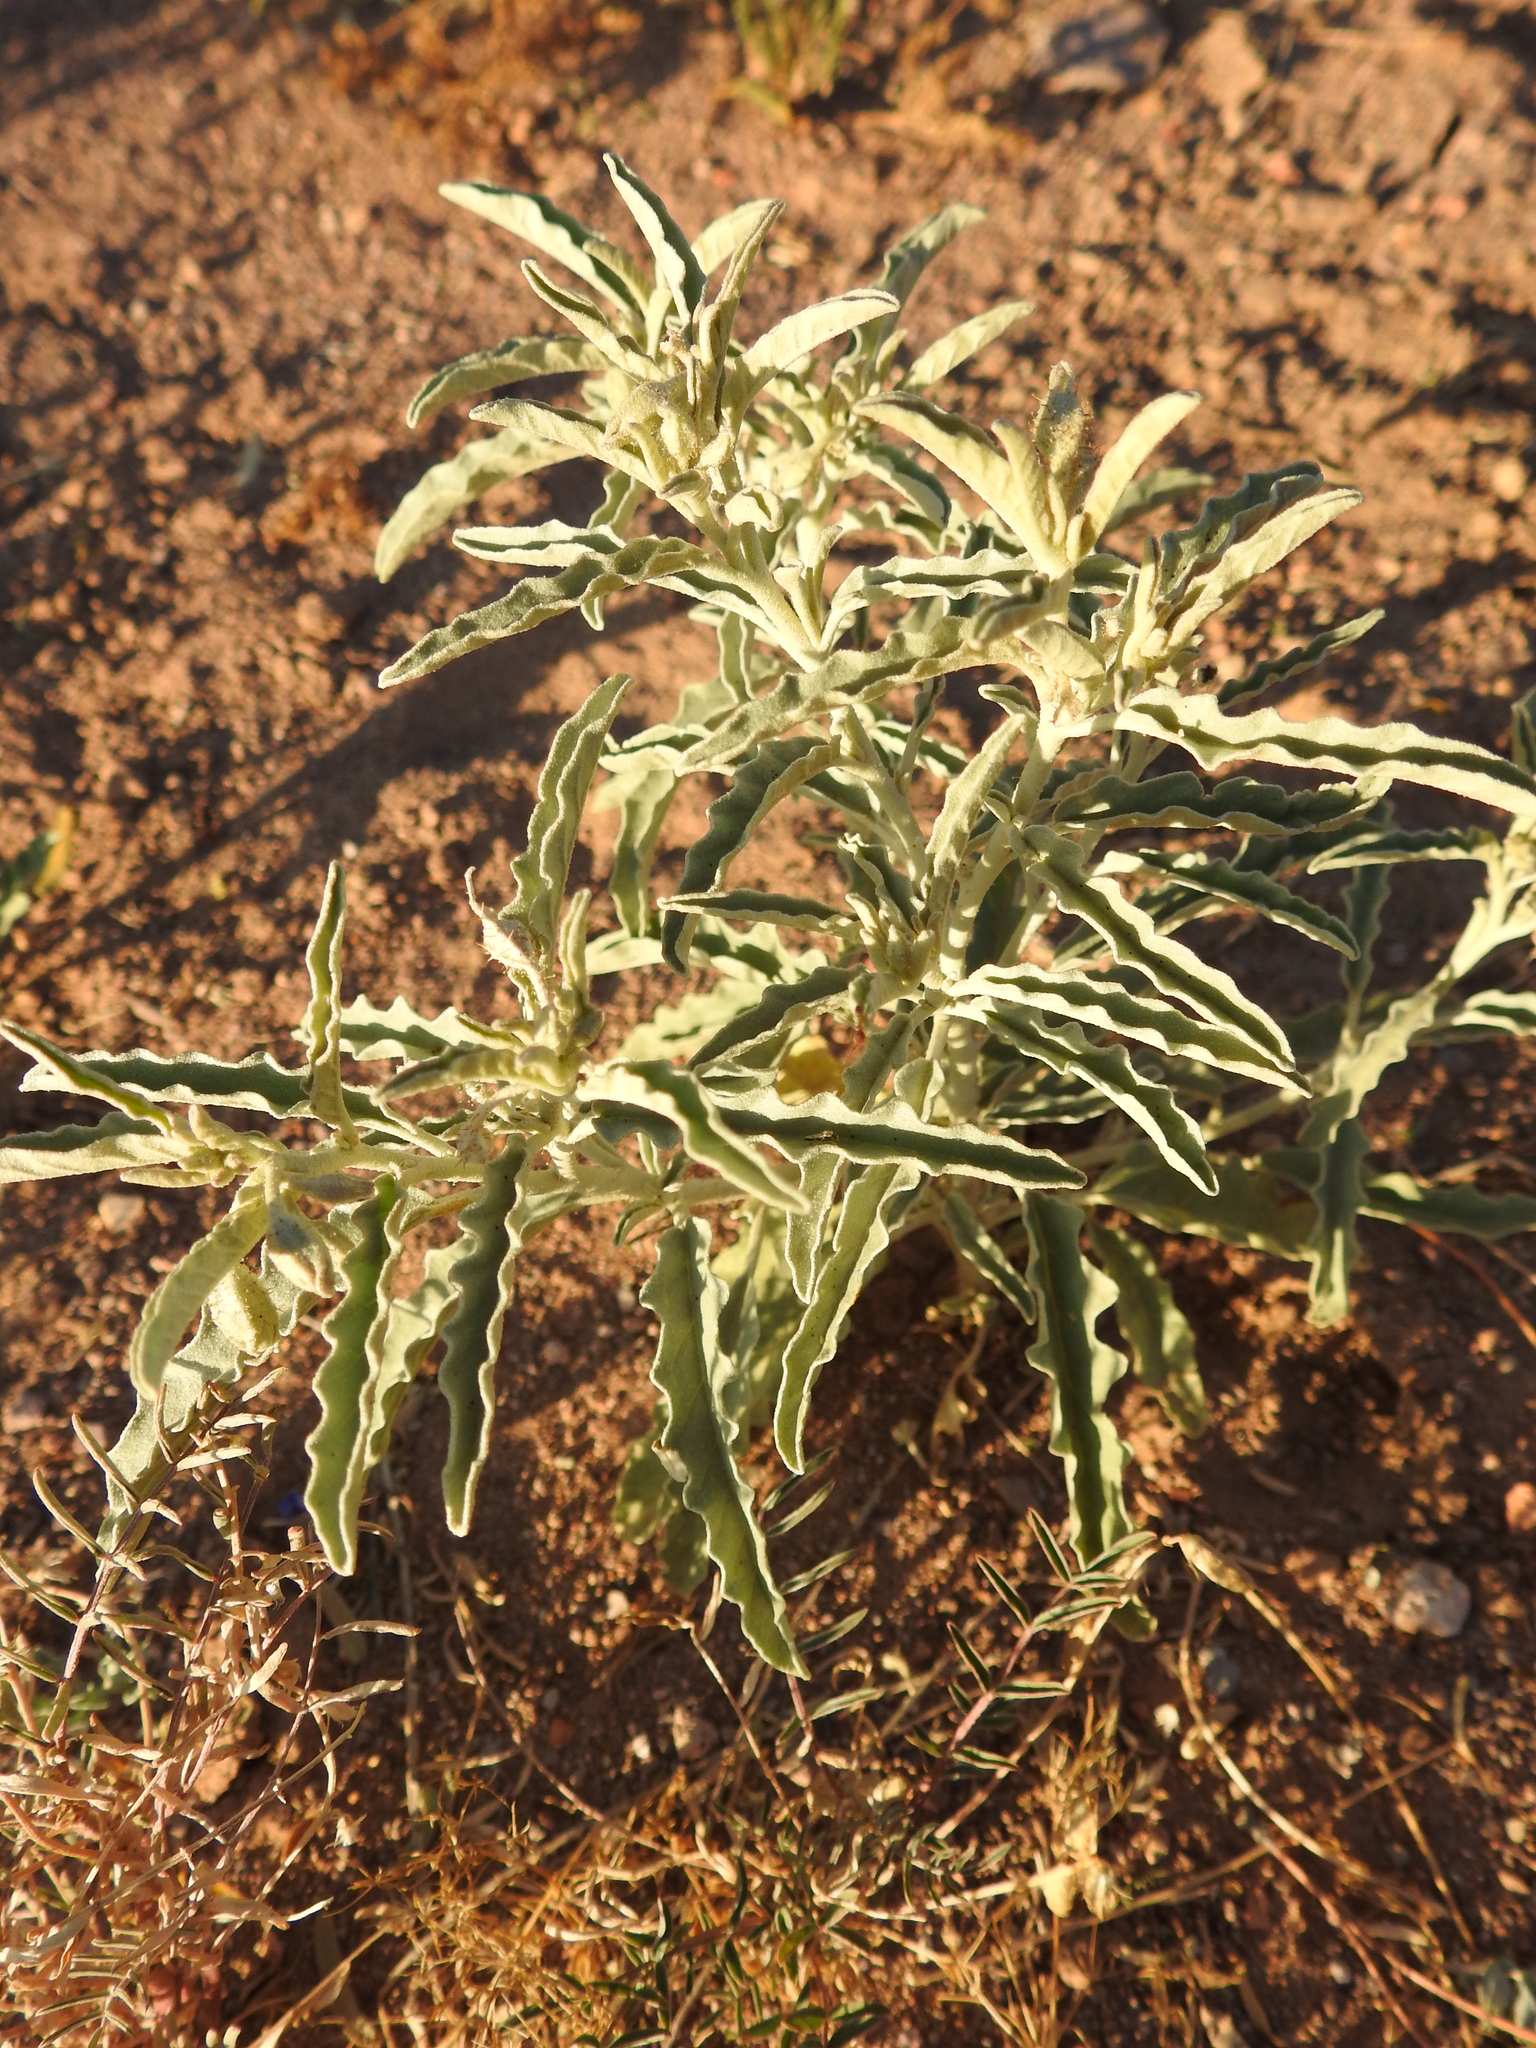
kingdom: Plantae
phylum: Tracheophyta
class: Magnoliopsida
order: Solanales
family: Solanaceae
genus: Solanum
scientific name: Solanum elaeagnifolium
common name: Silverleaf nightshade
